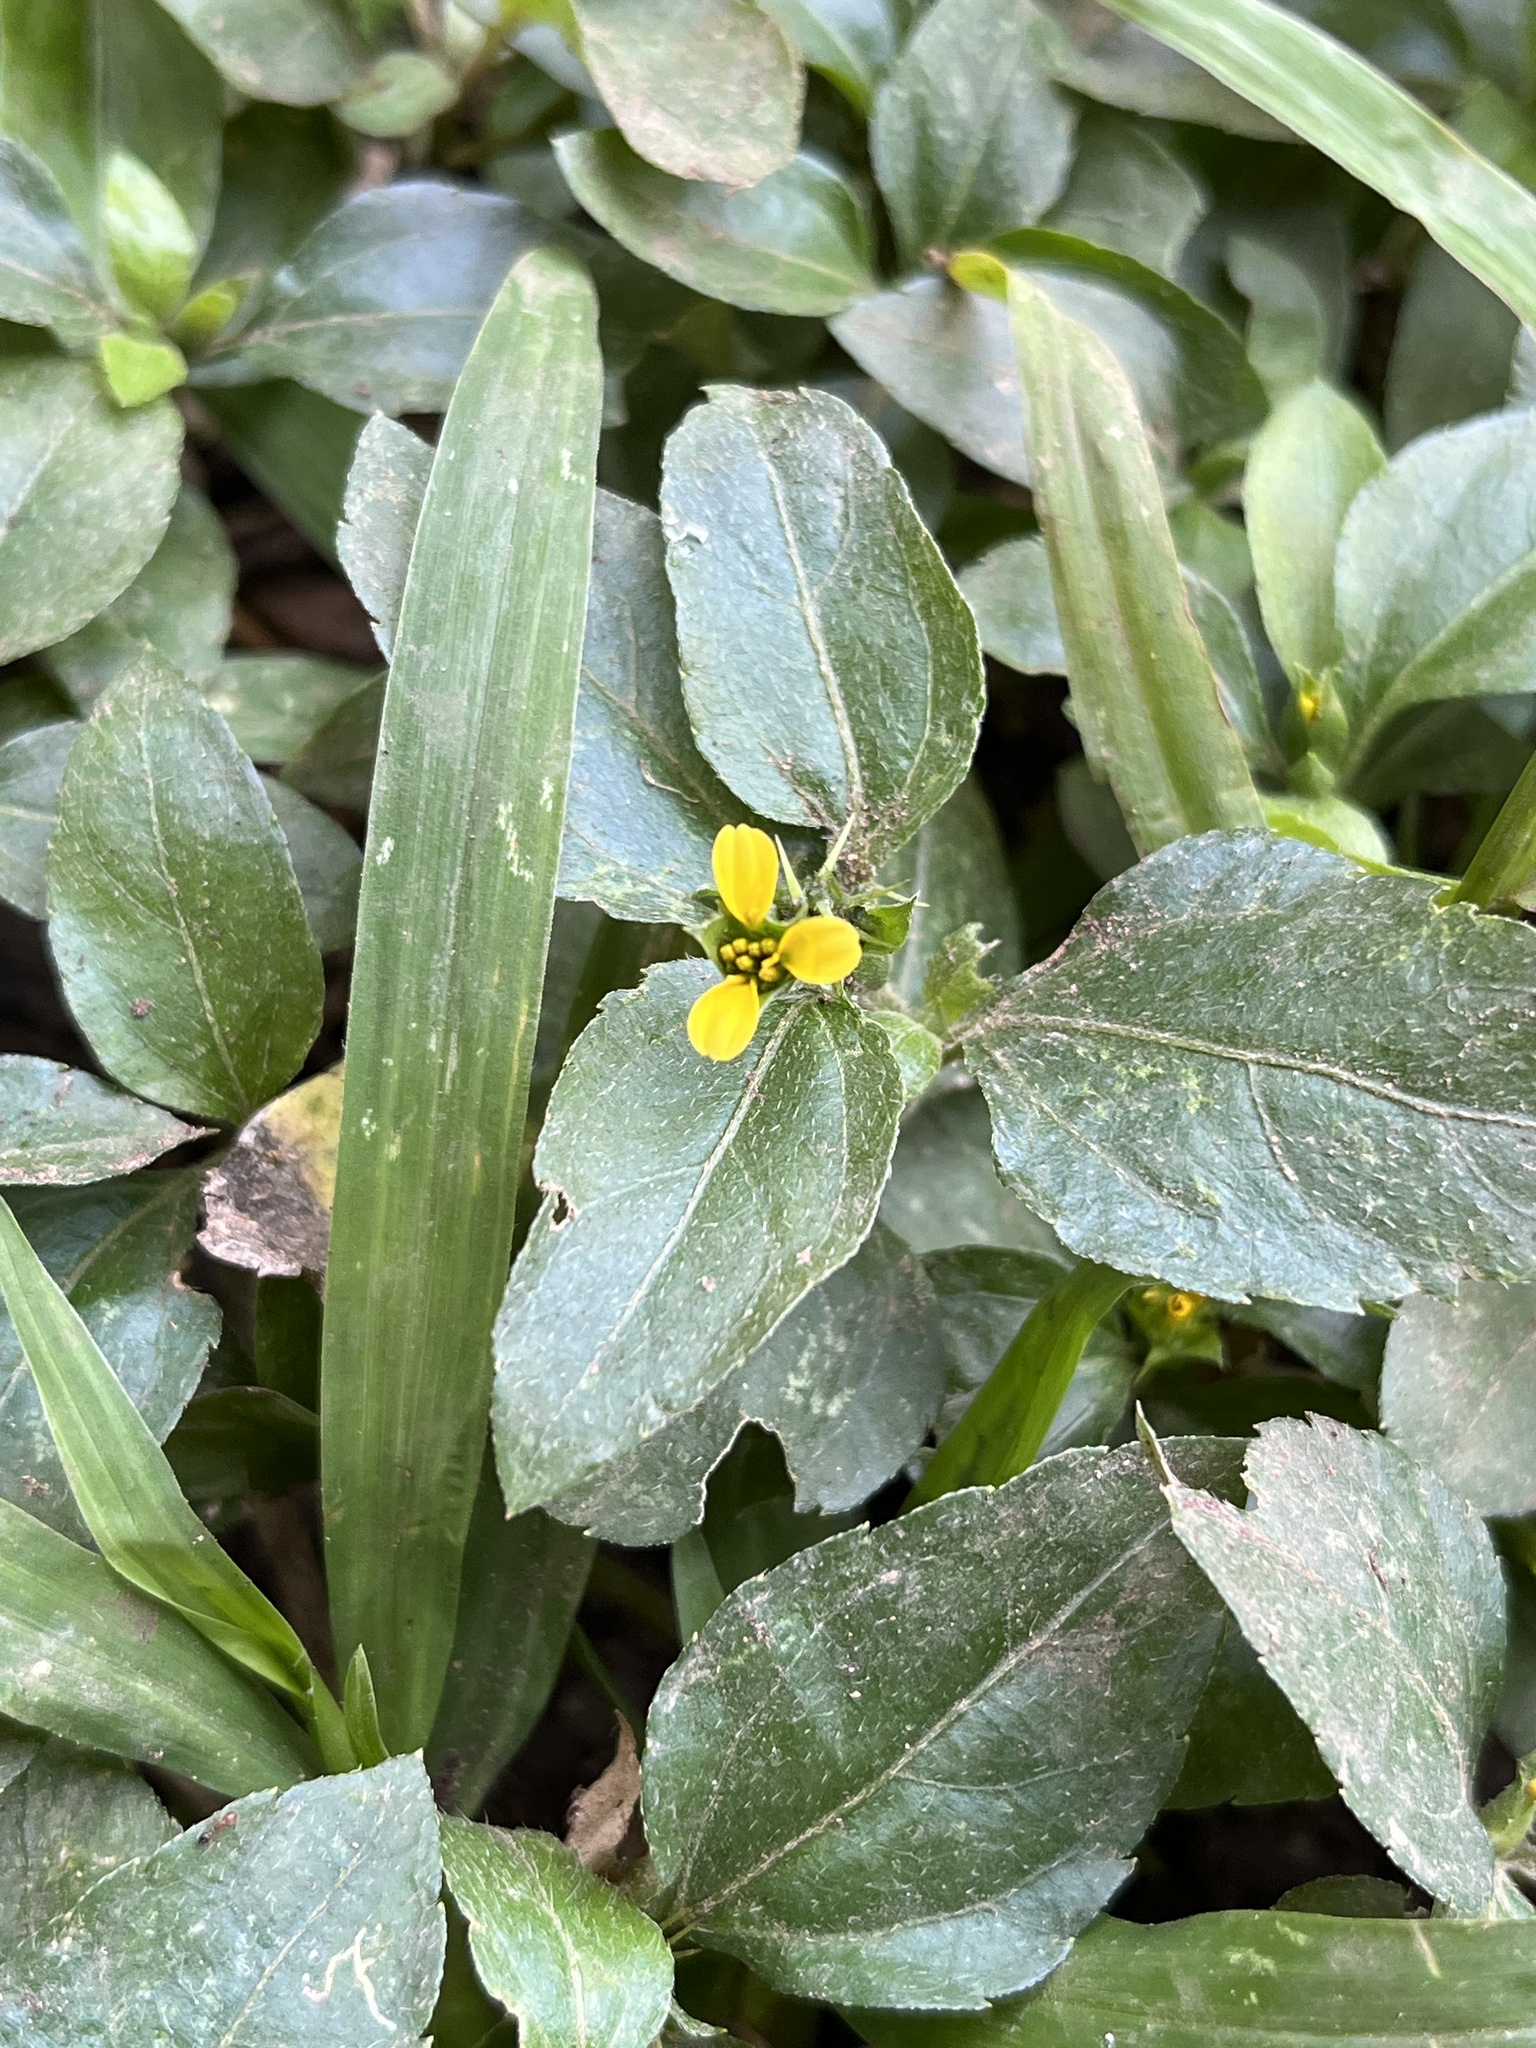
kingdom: Plantae
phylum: Tracheophyta
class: Magnoliopsida
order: Asterales
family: Asteraceae
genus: Calyptocarpus
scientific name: Calyptocarpus wendlandii
